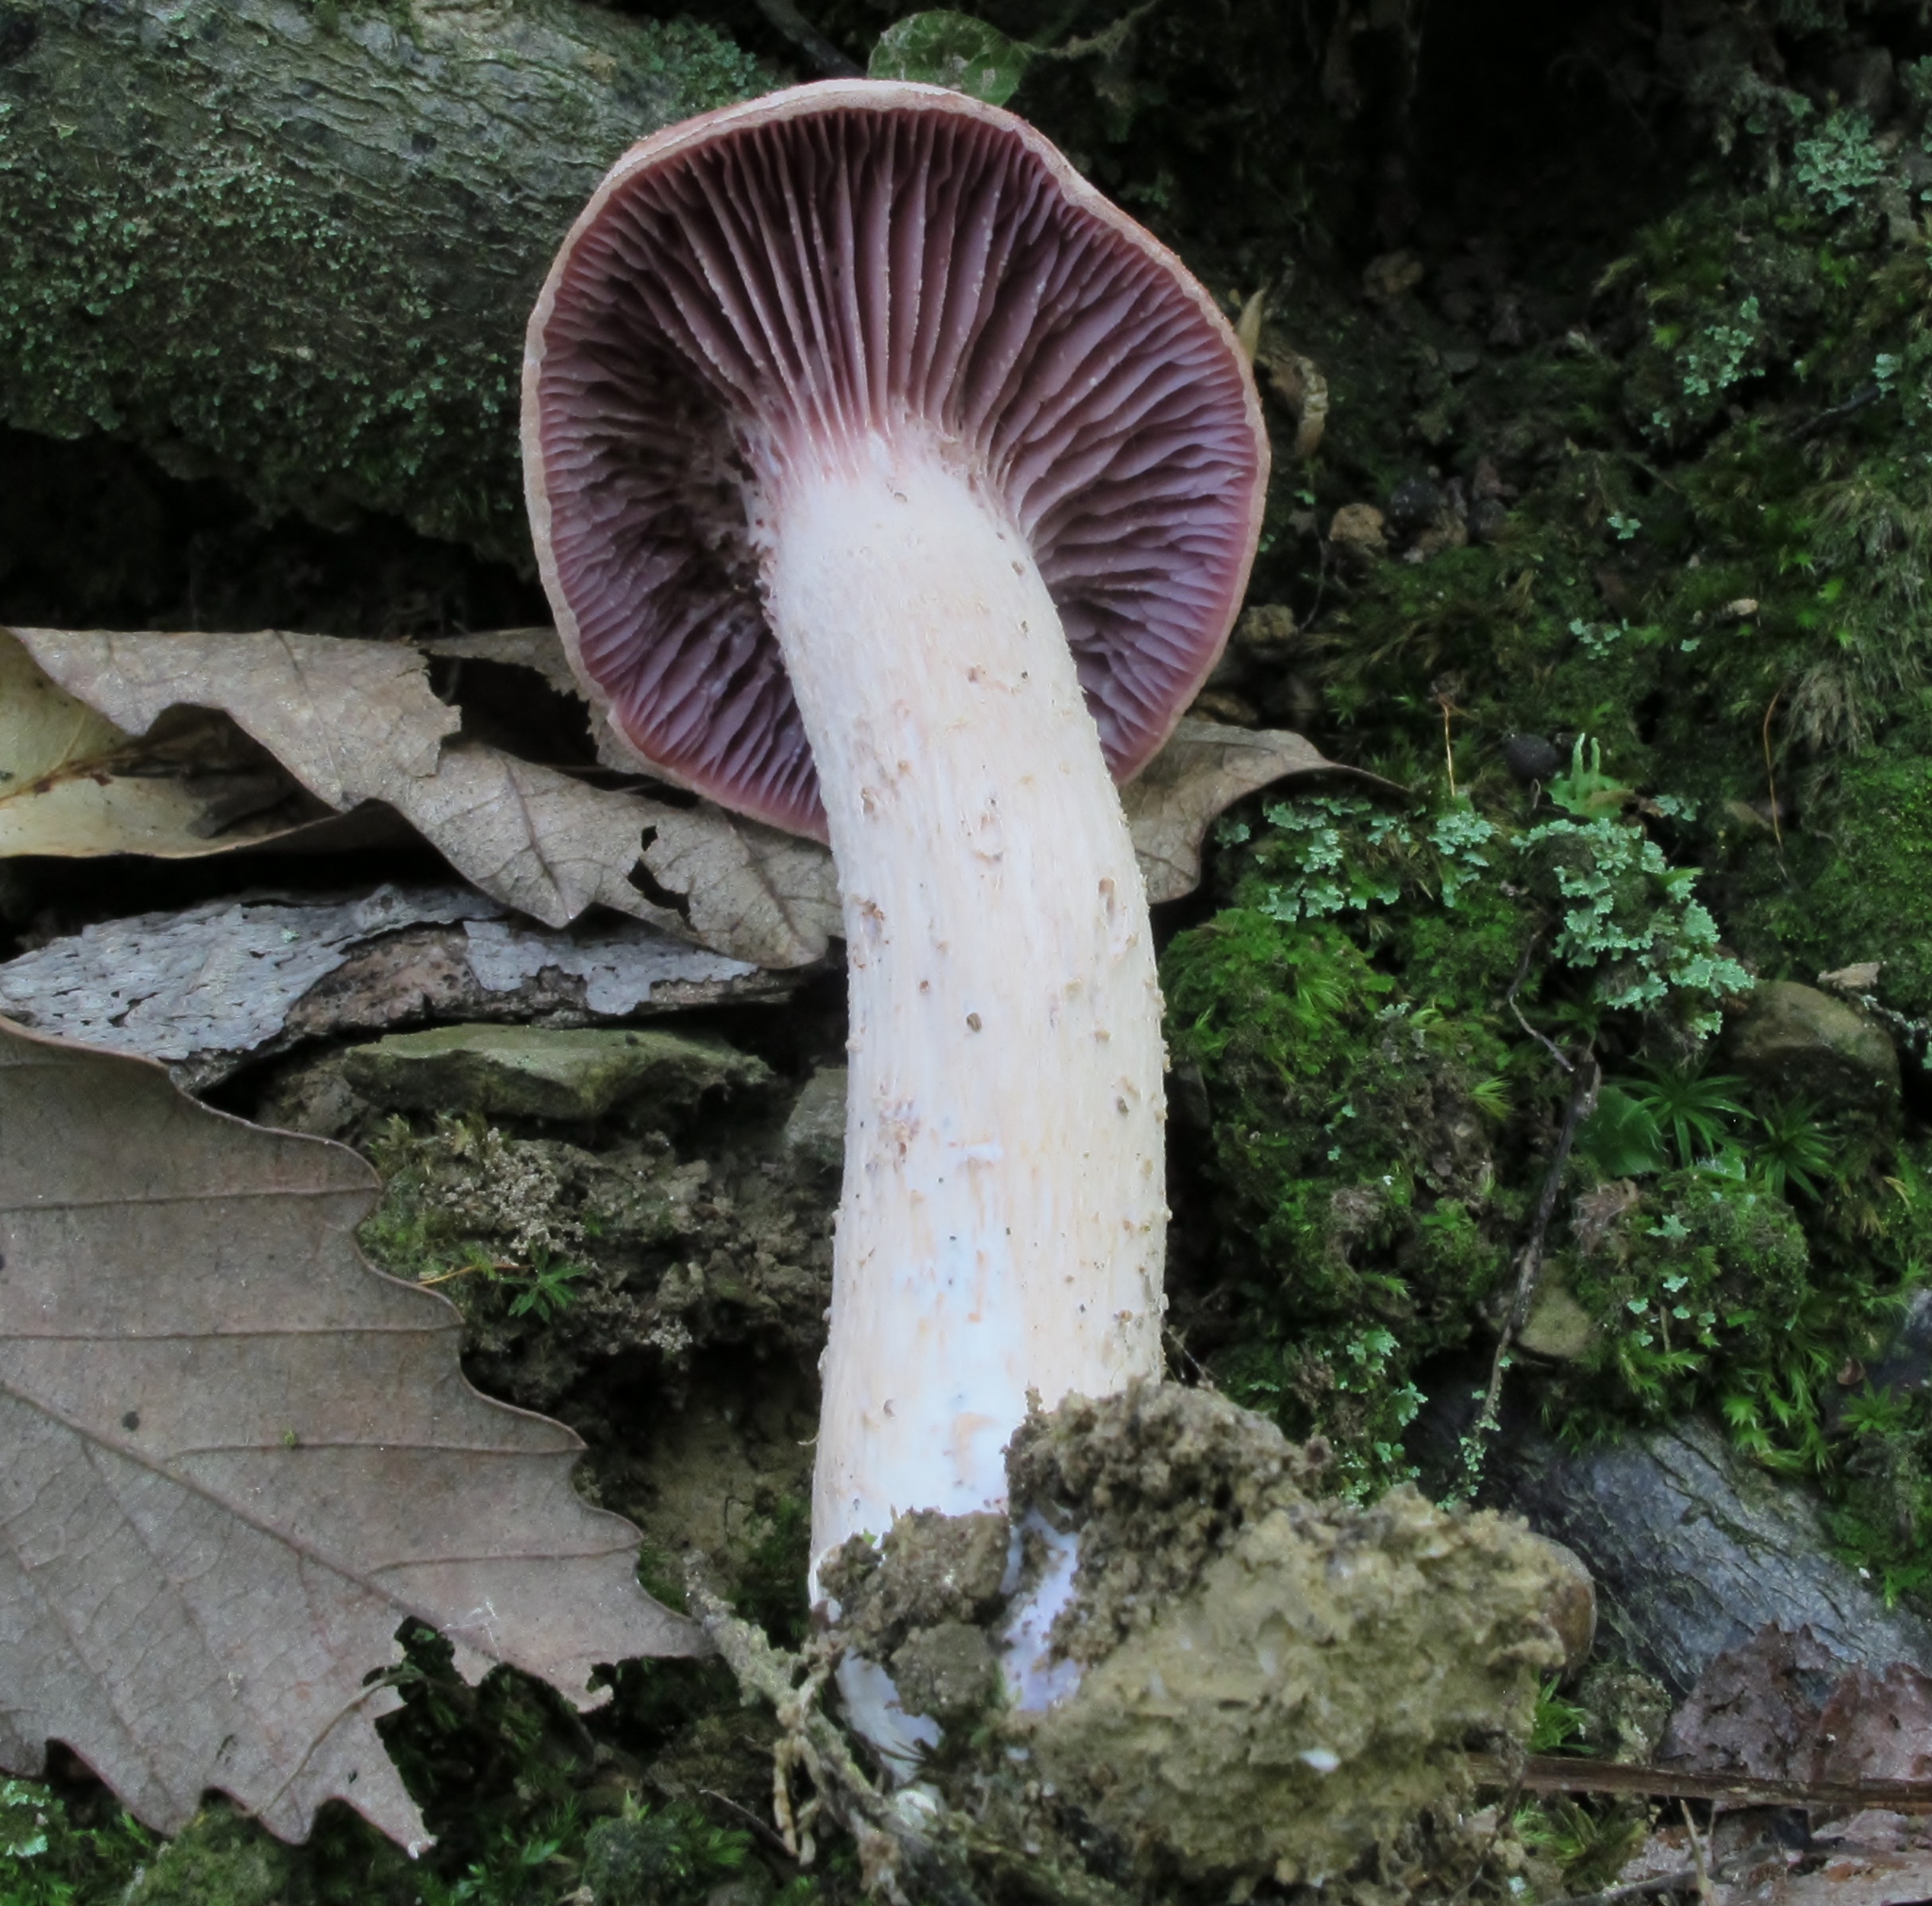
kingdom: Fungi
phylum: Basidiomycota
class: Agaricomycetes
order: Agaricales
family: Hydnangiaceae
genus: Laccaria
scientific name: Laccaria ochropurpurea
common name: Purple laccaria
